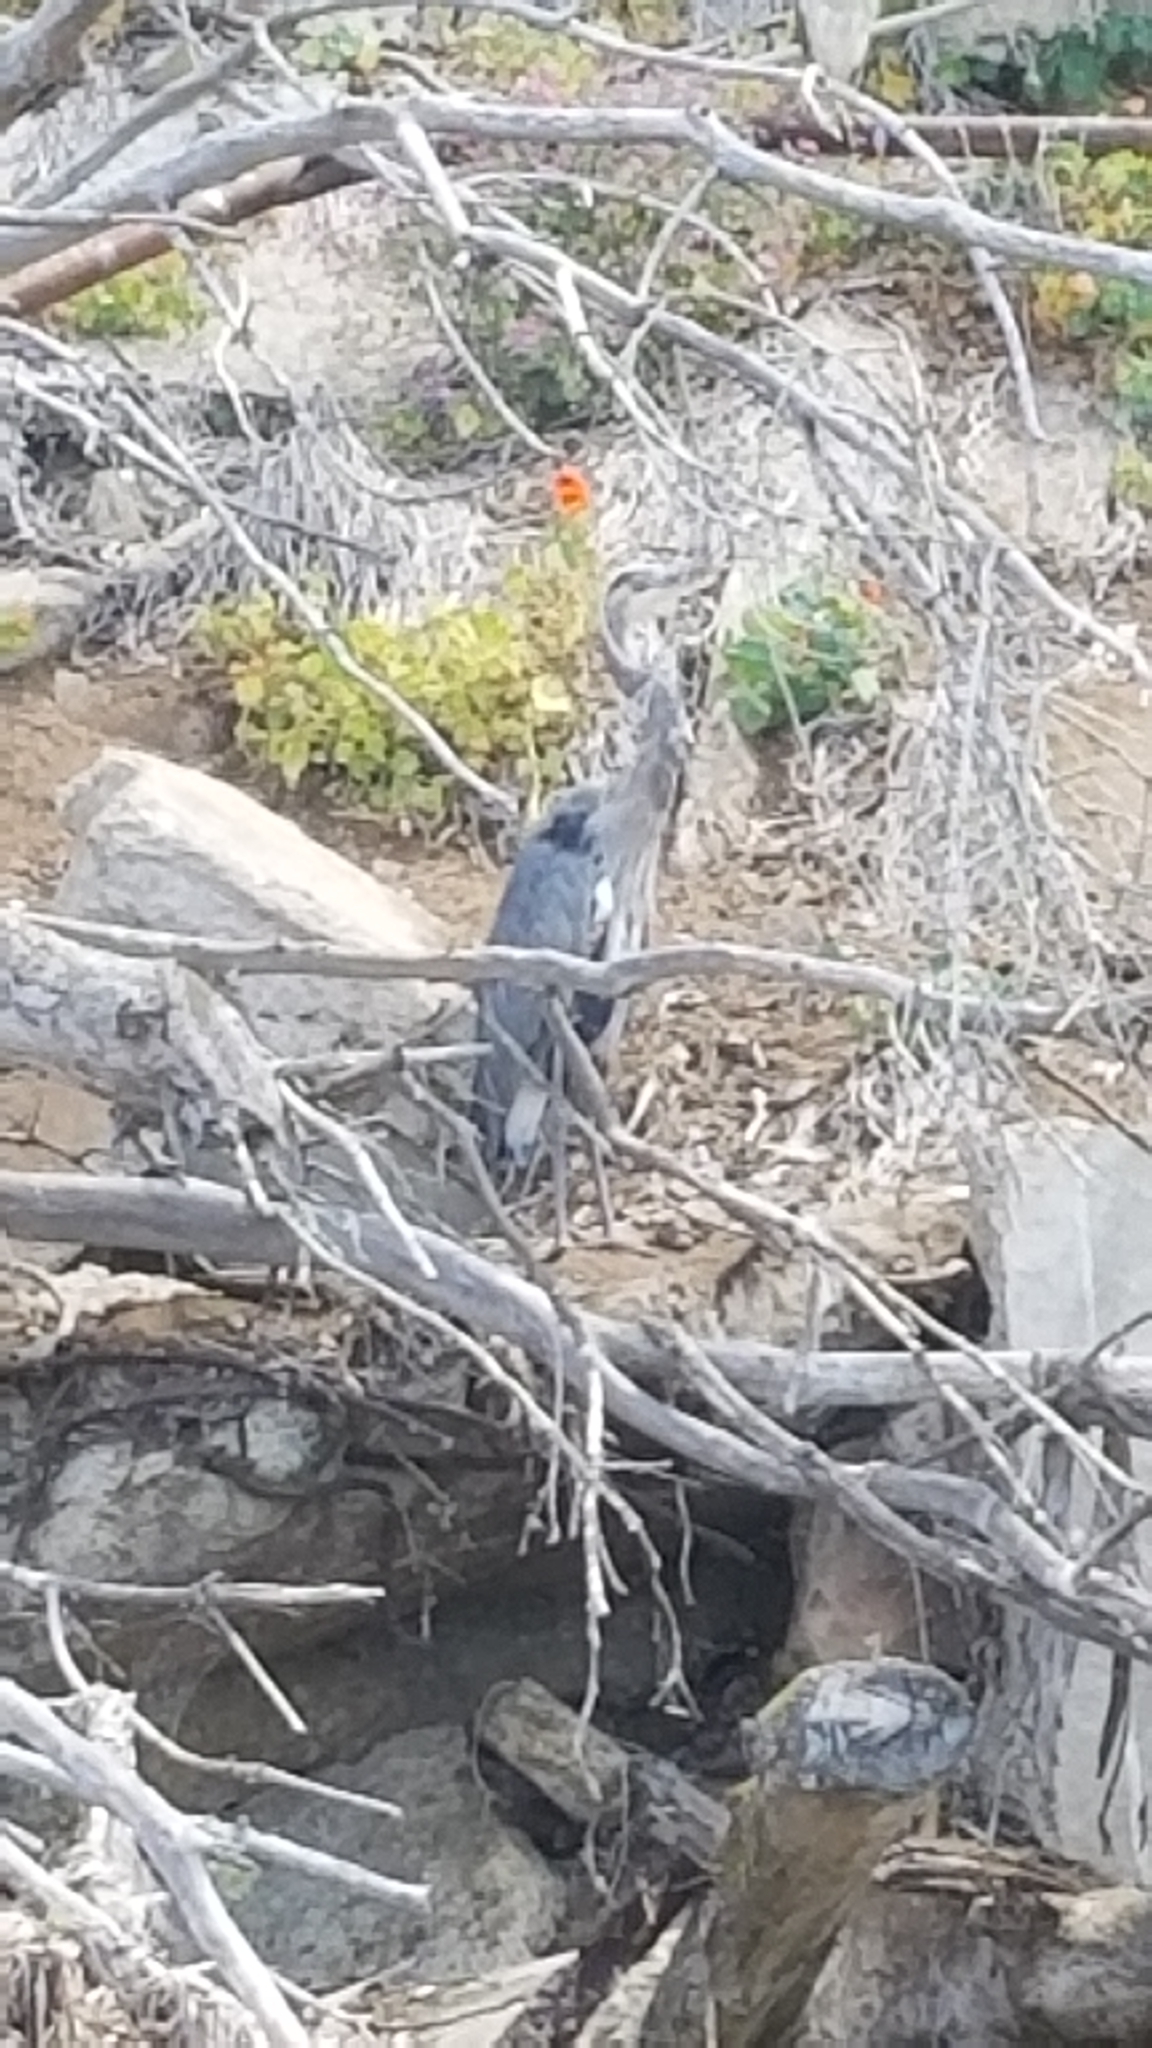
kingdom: Animalia
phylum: Chordata
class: Aves
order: Pelecaniformes
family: Ardeidae
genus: Ardea
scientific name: Ardea herodias
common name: Great blue heron
